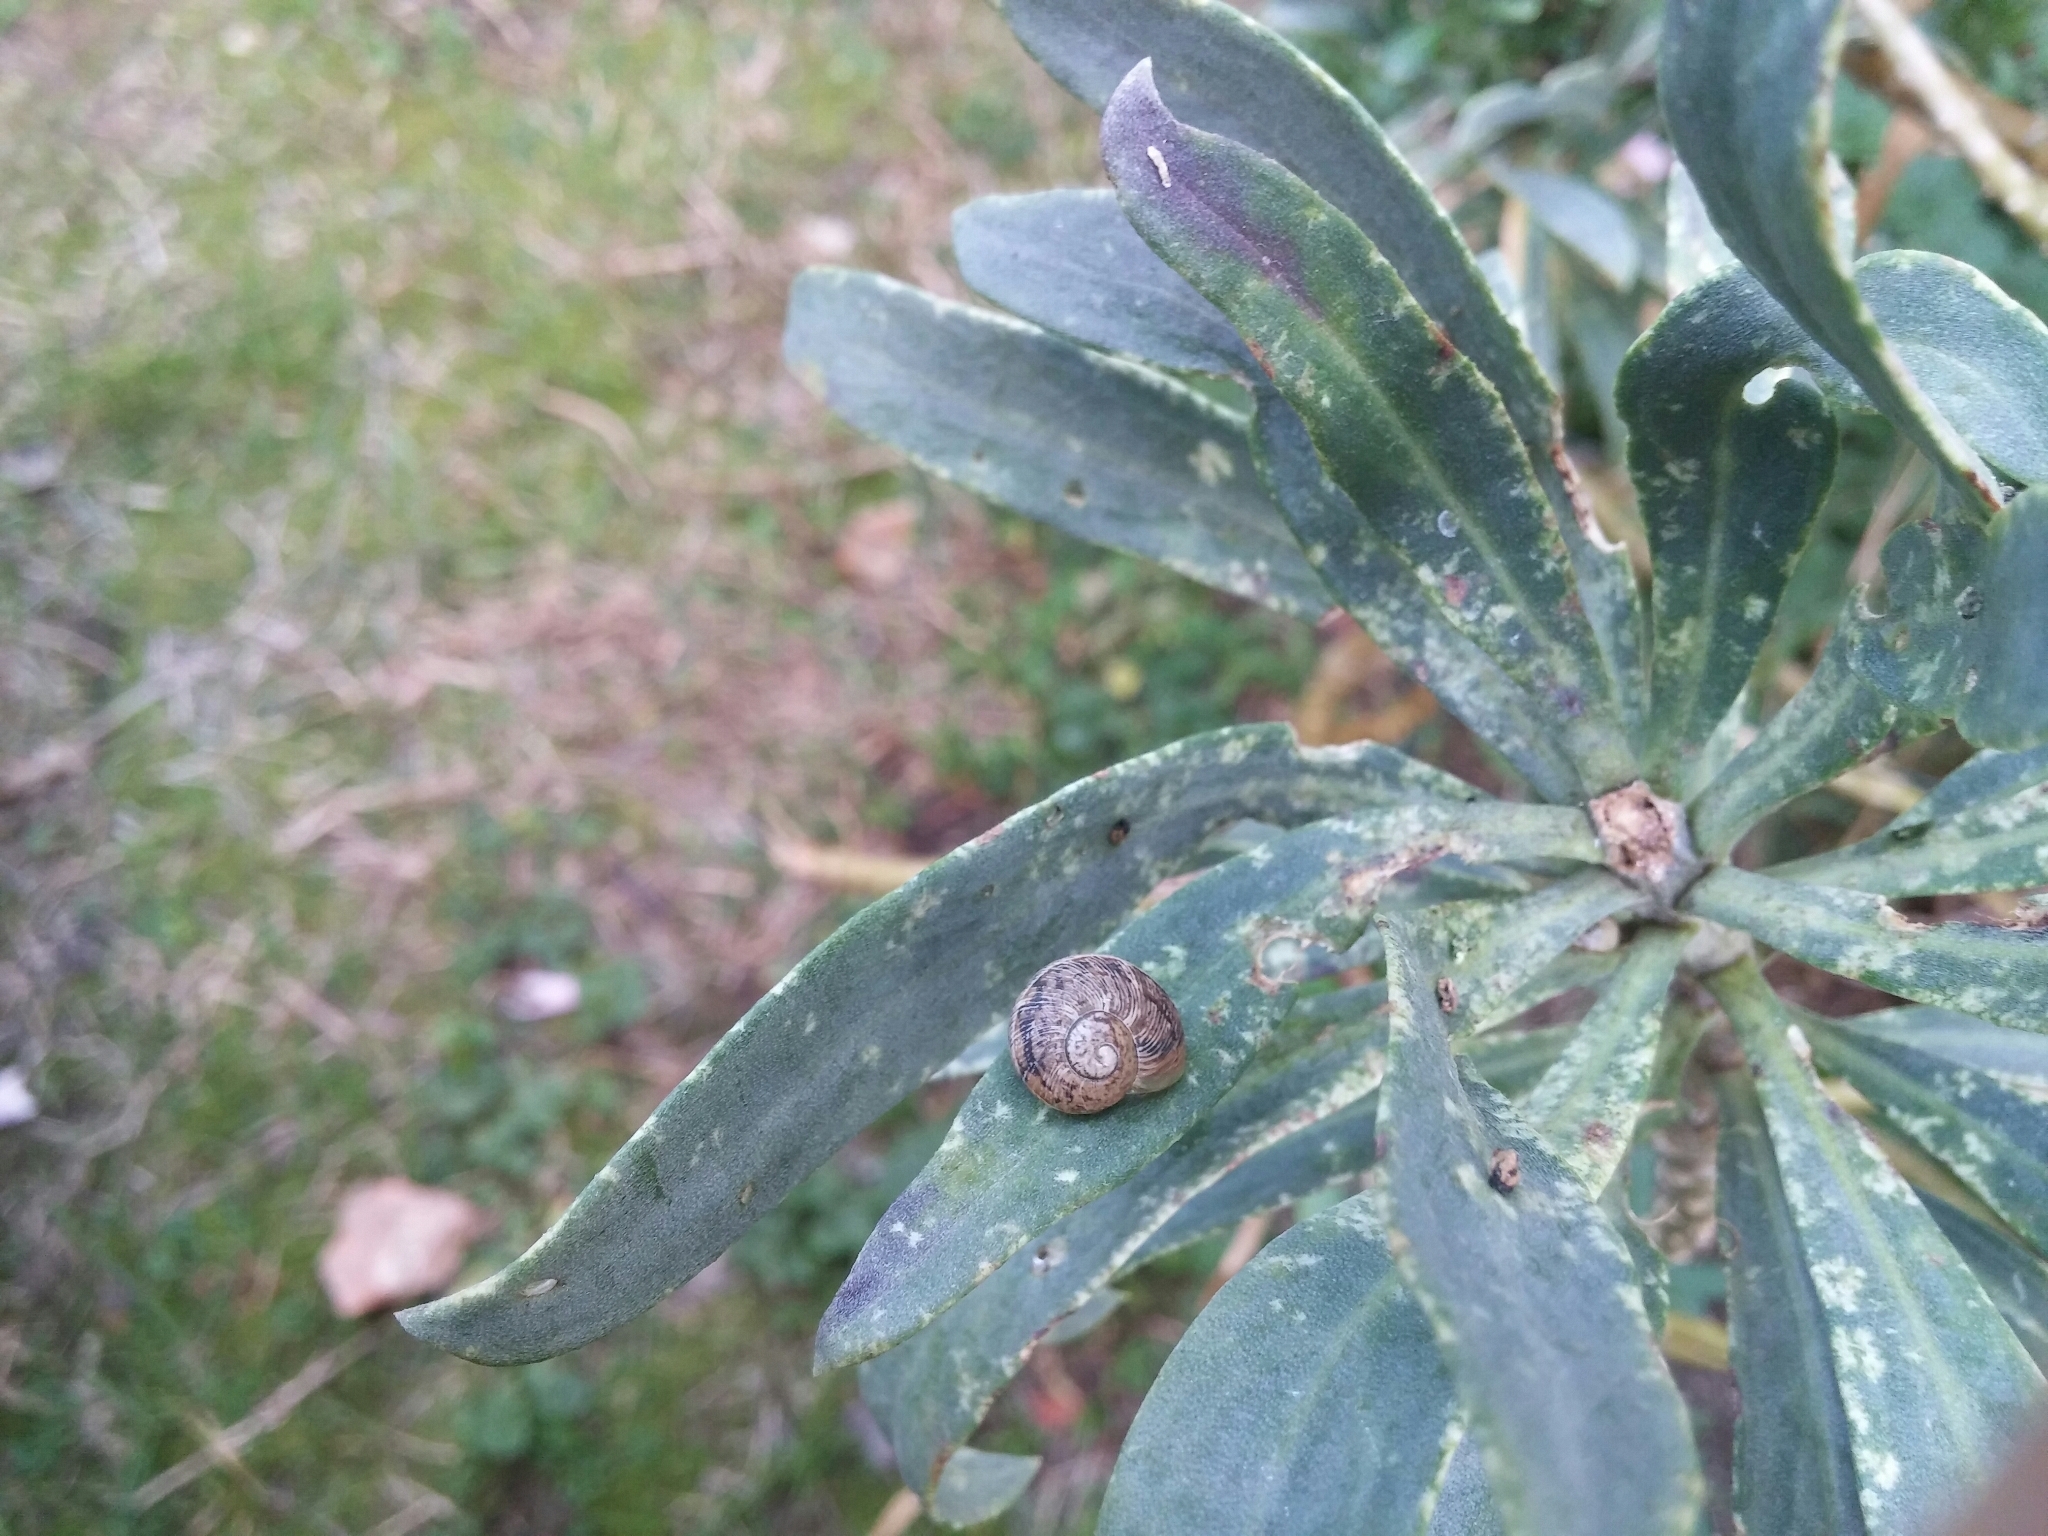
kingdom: Animalia
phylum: Mollusca
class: Gastropoda
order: Stylommatophora
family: Helicidae
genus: Cornu
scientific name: Cornu aspersum
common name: Brown garden snail
